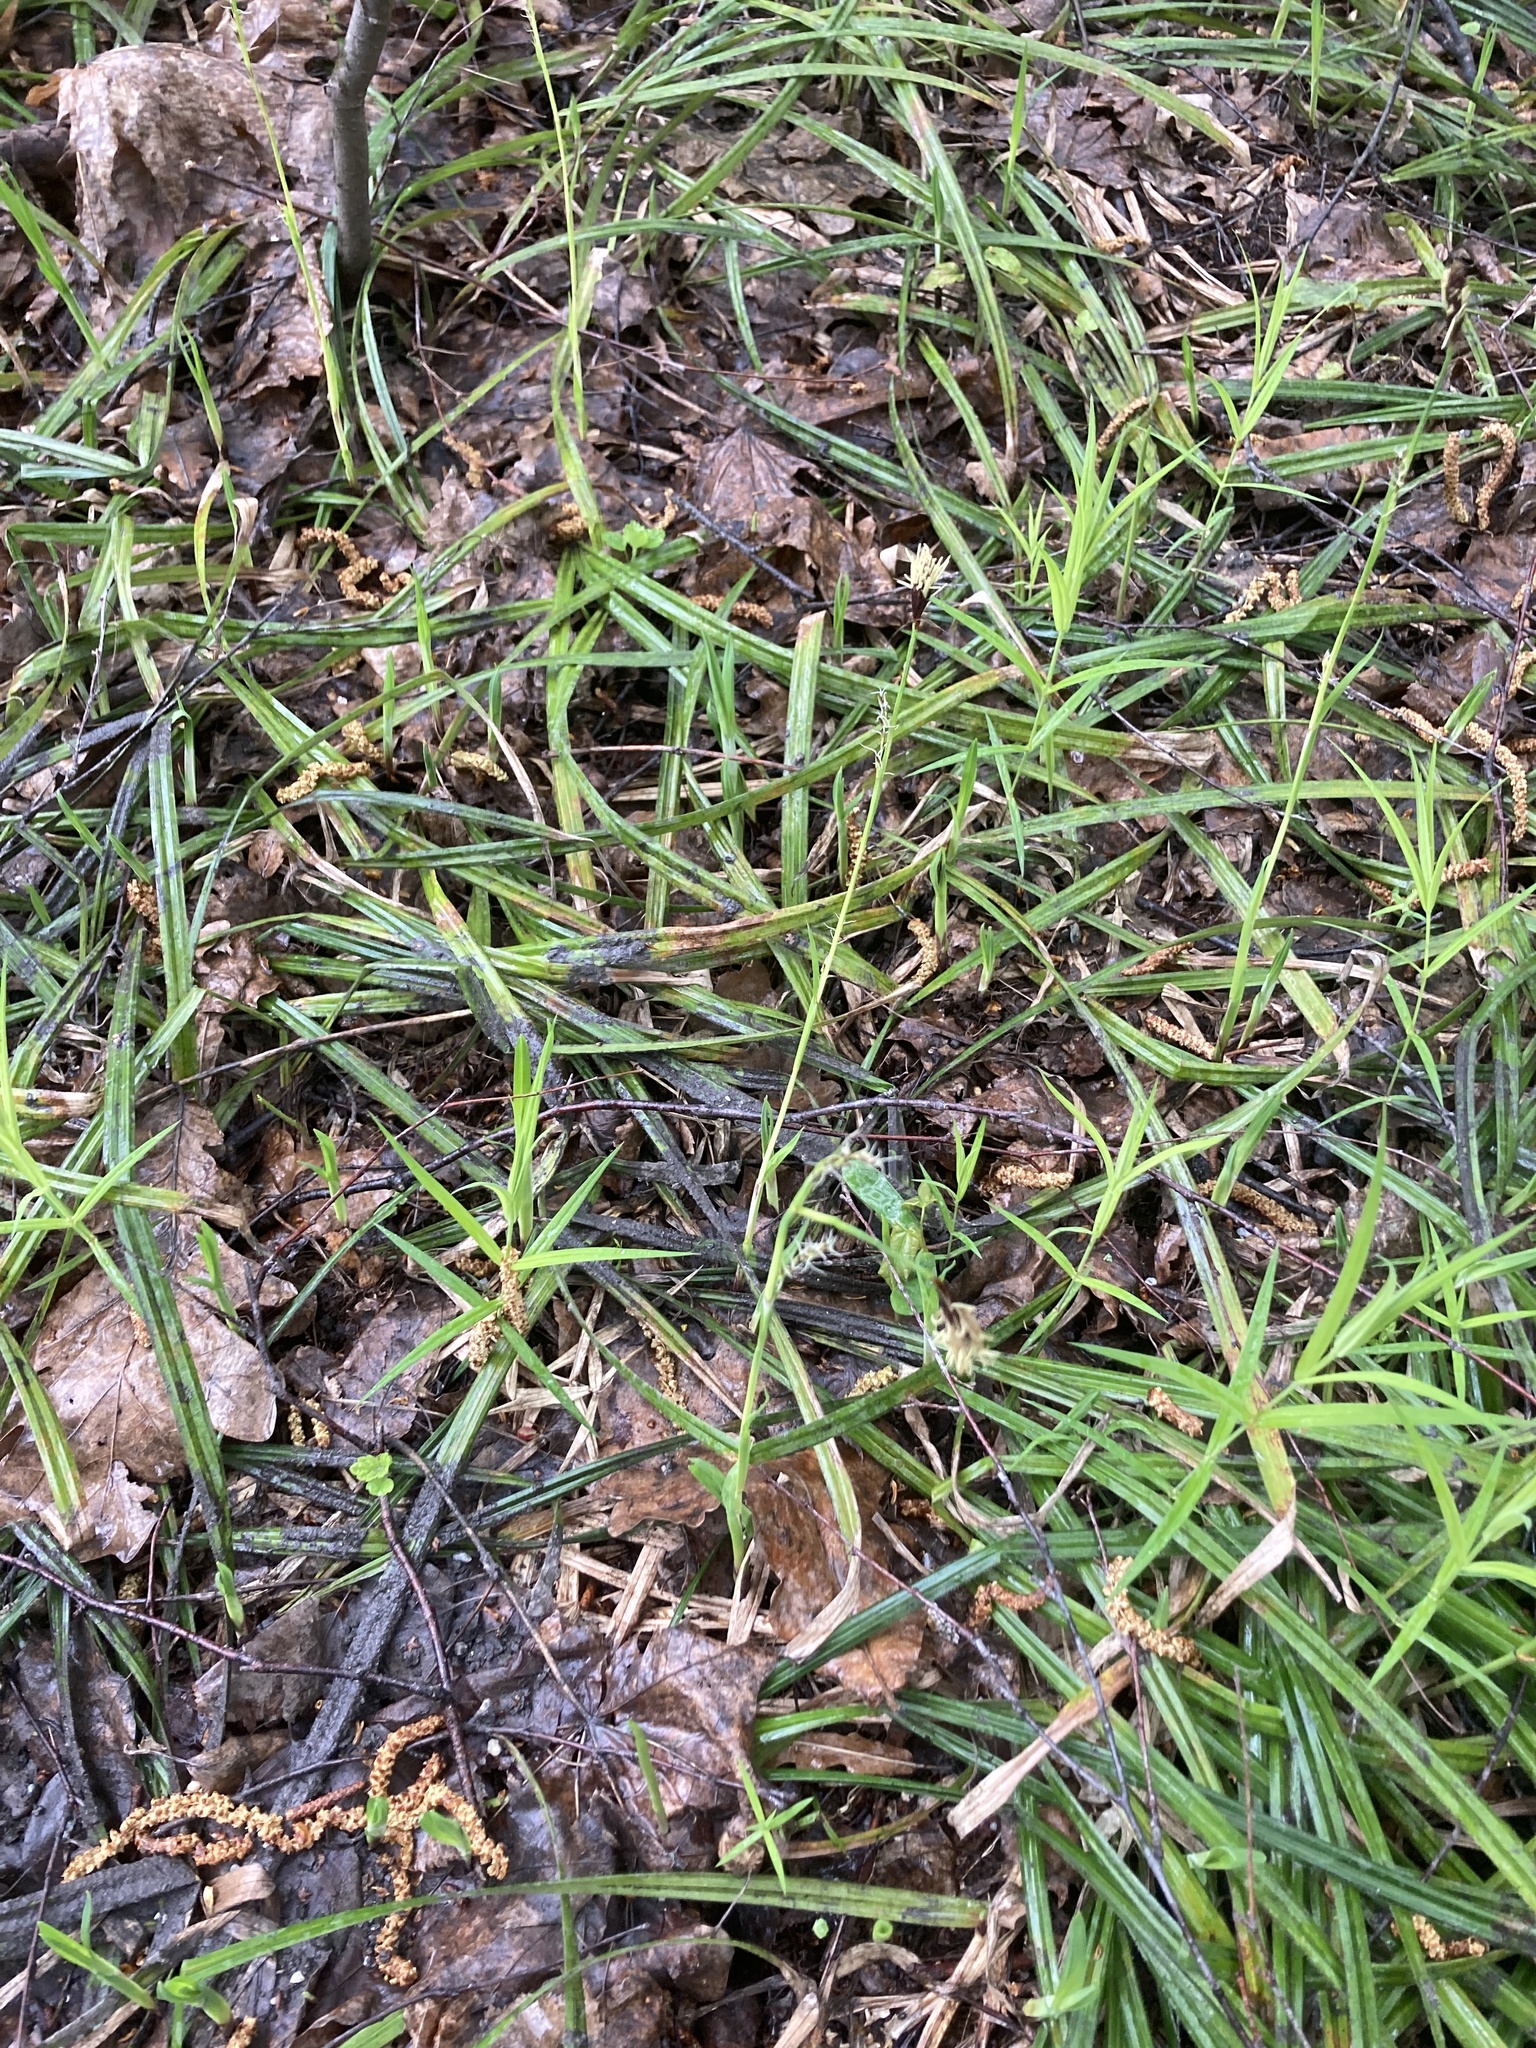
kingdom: Plantae
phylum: Tracheophyta
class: Liliopsida
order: Poales
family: Cyperaceae
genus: Carex
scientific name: Carex pilosa
